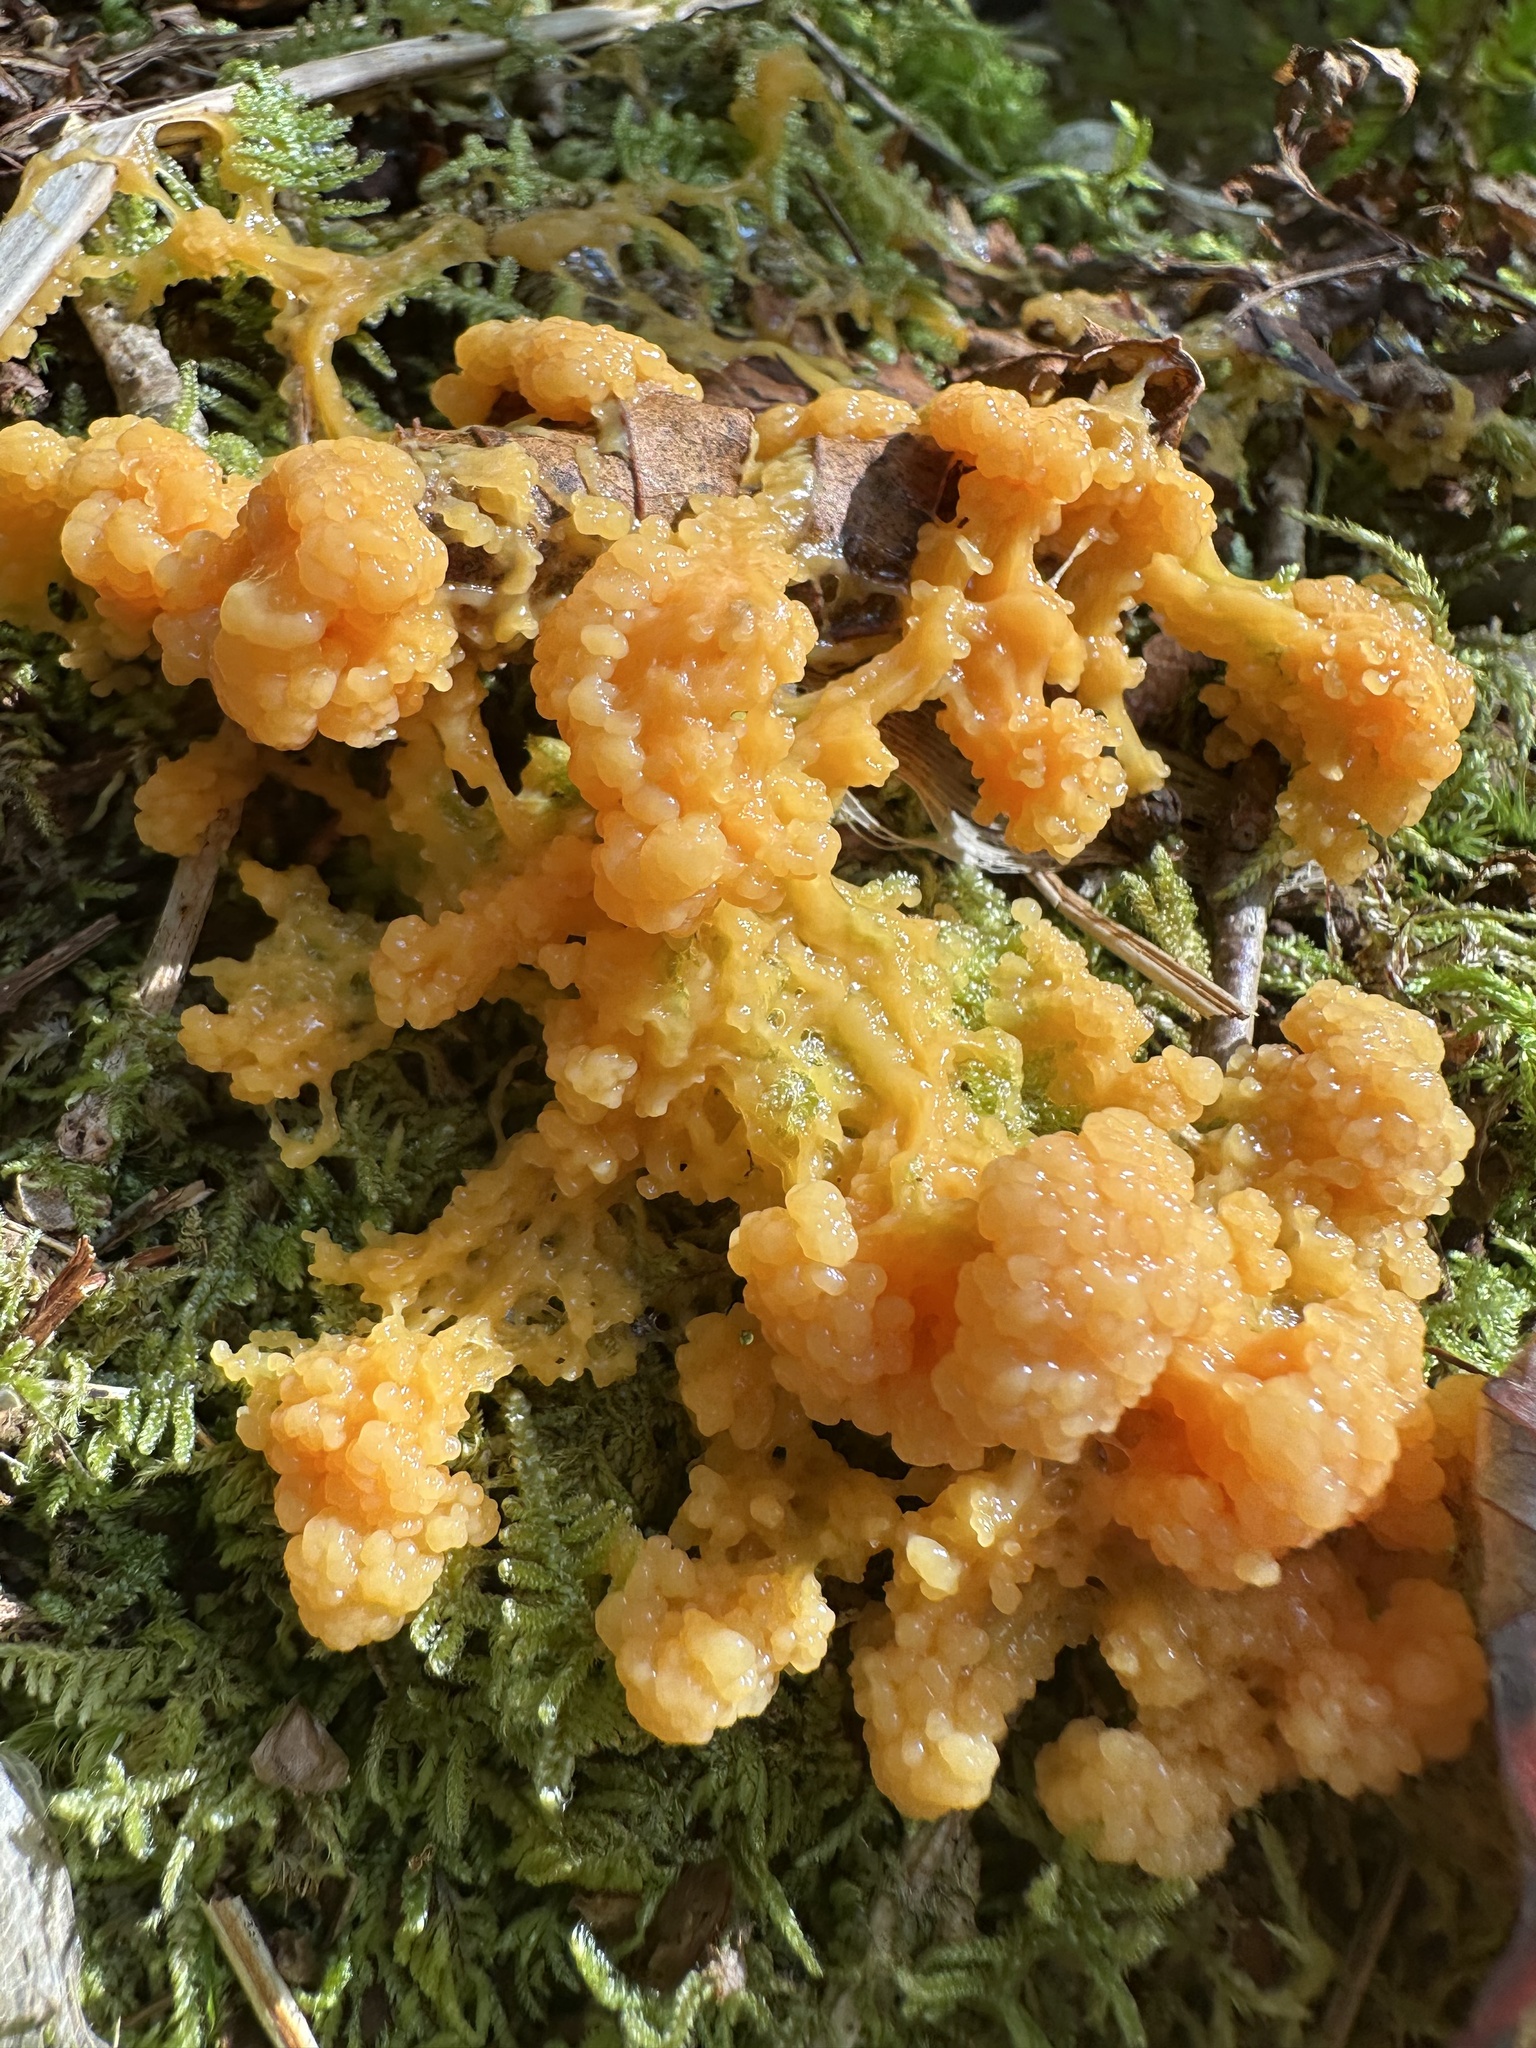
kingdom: Protozoa
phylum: Mycetozoa
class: Myxomycetes
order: Physarales
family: Physaraceae
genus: Fuligo
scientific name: Fuligo muscorum
